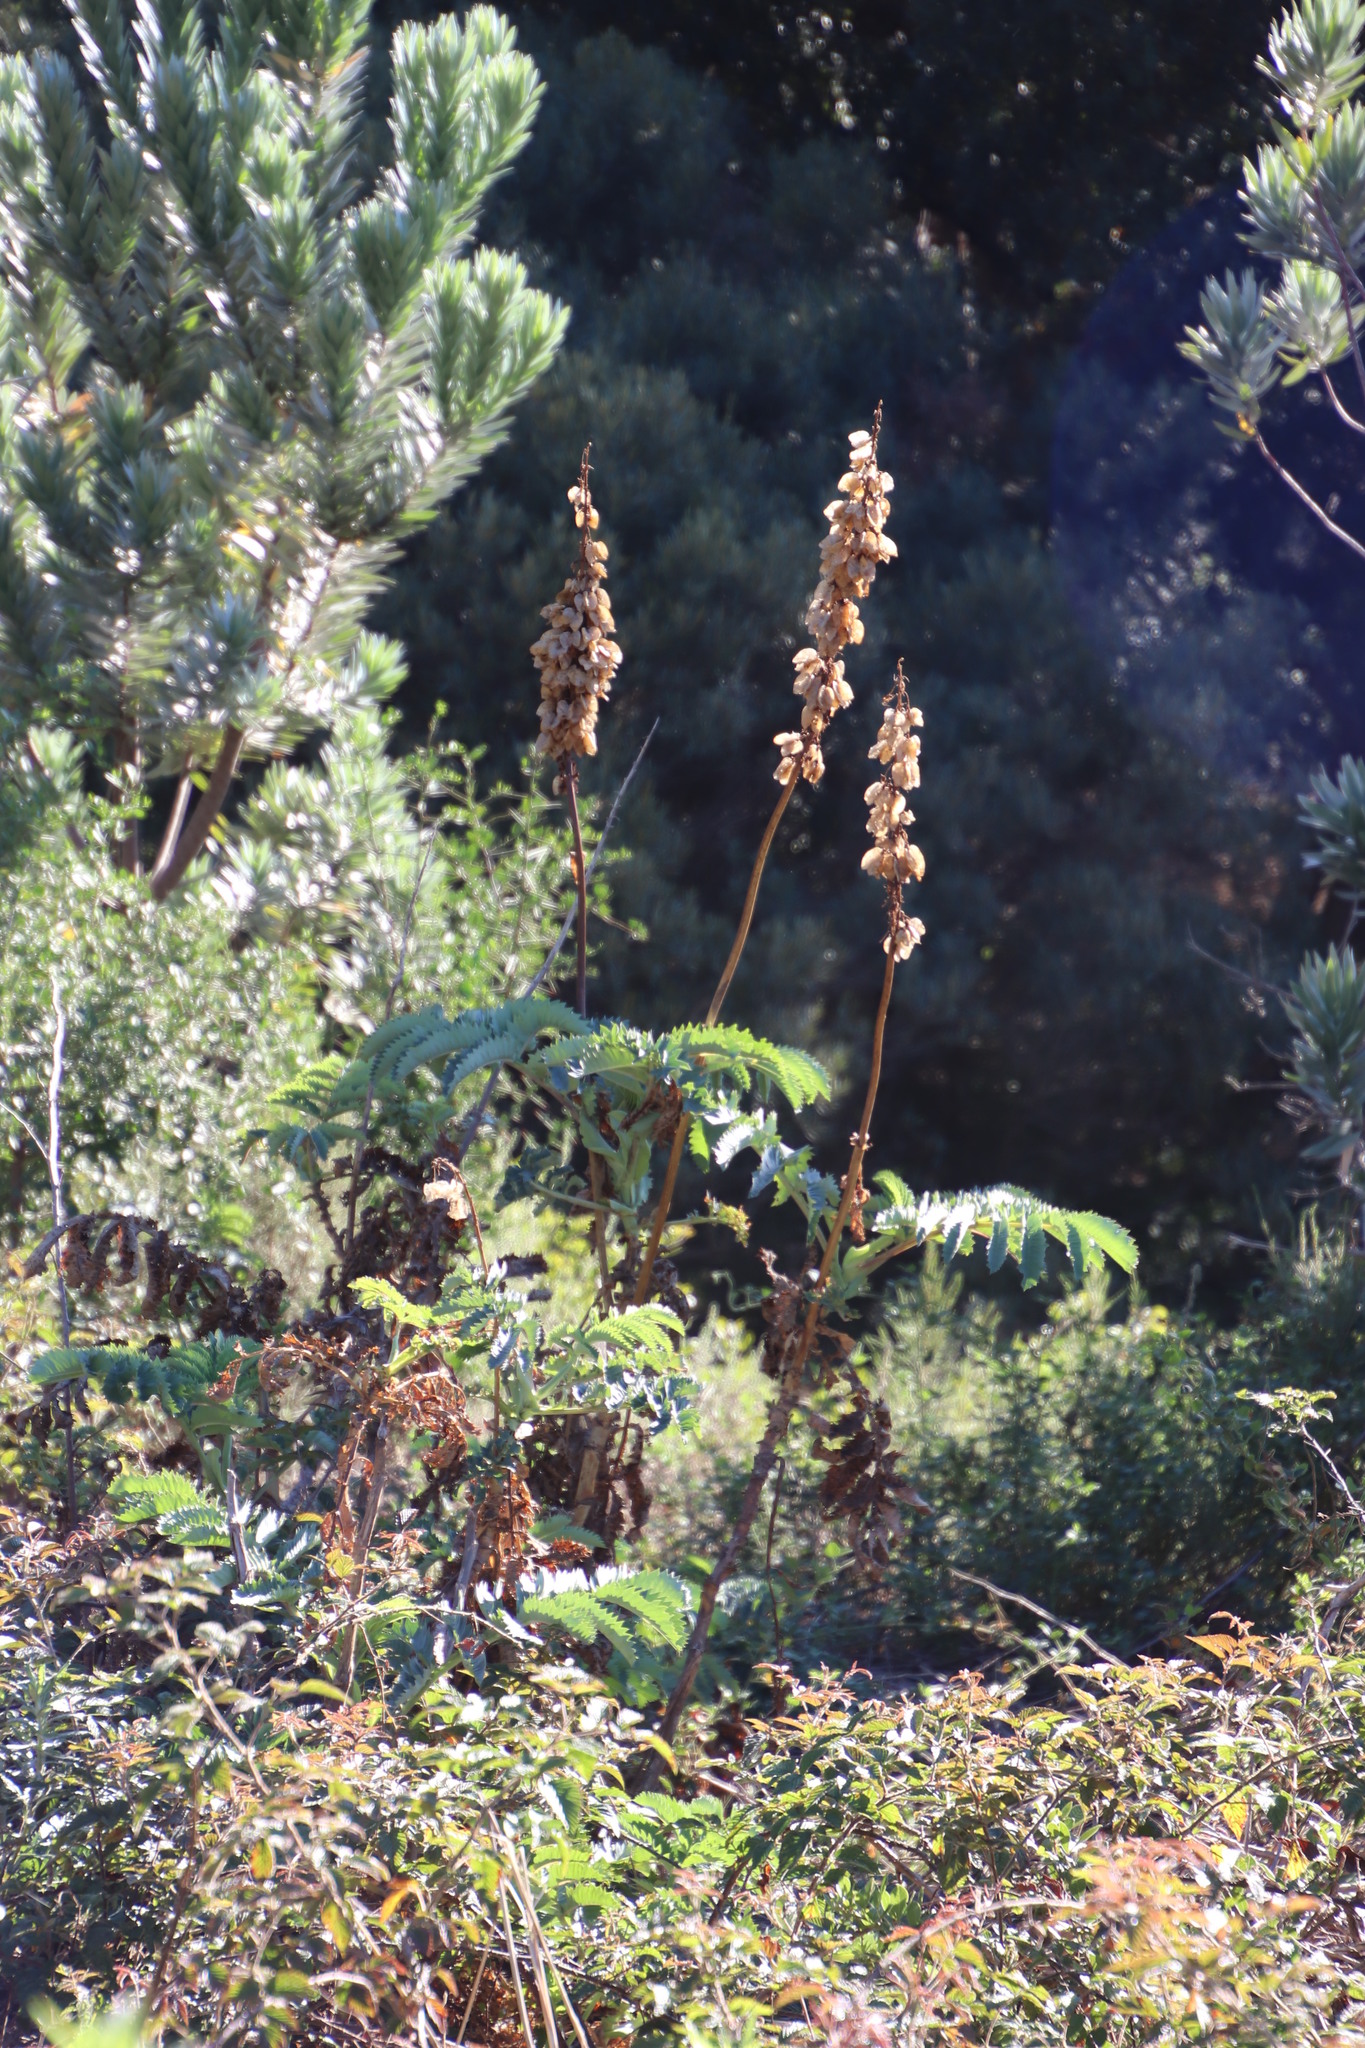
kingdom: Plantae
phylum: Tracheophyta
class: Magnoliopsida
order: Geraniales
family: Melianthaceae
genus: Melianthus
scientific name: Melianthus major
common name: Honey-flower
